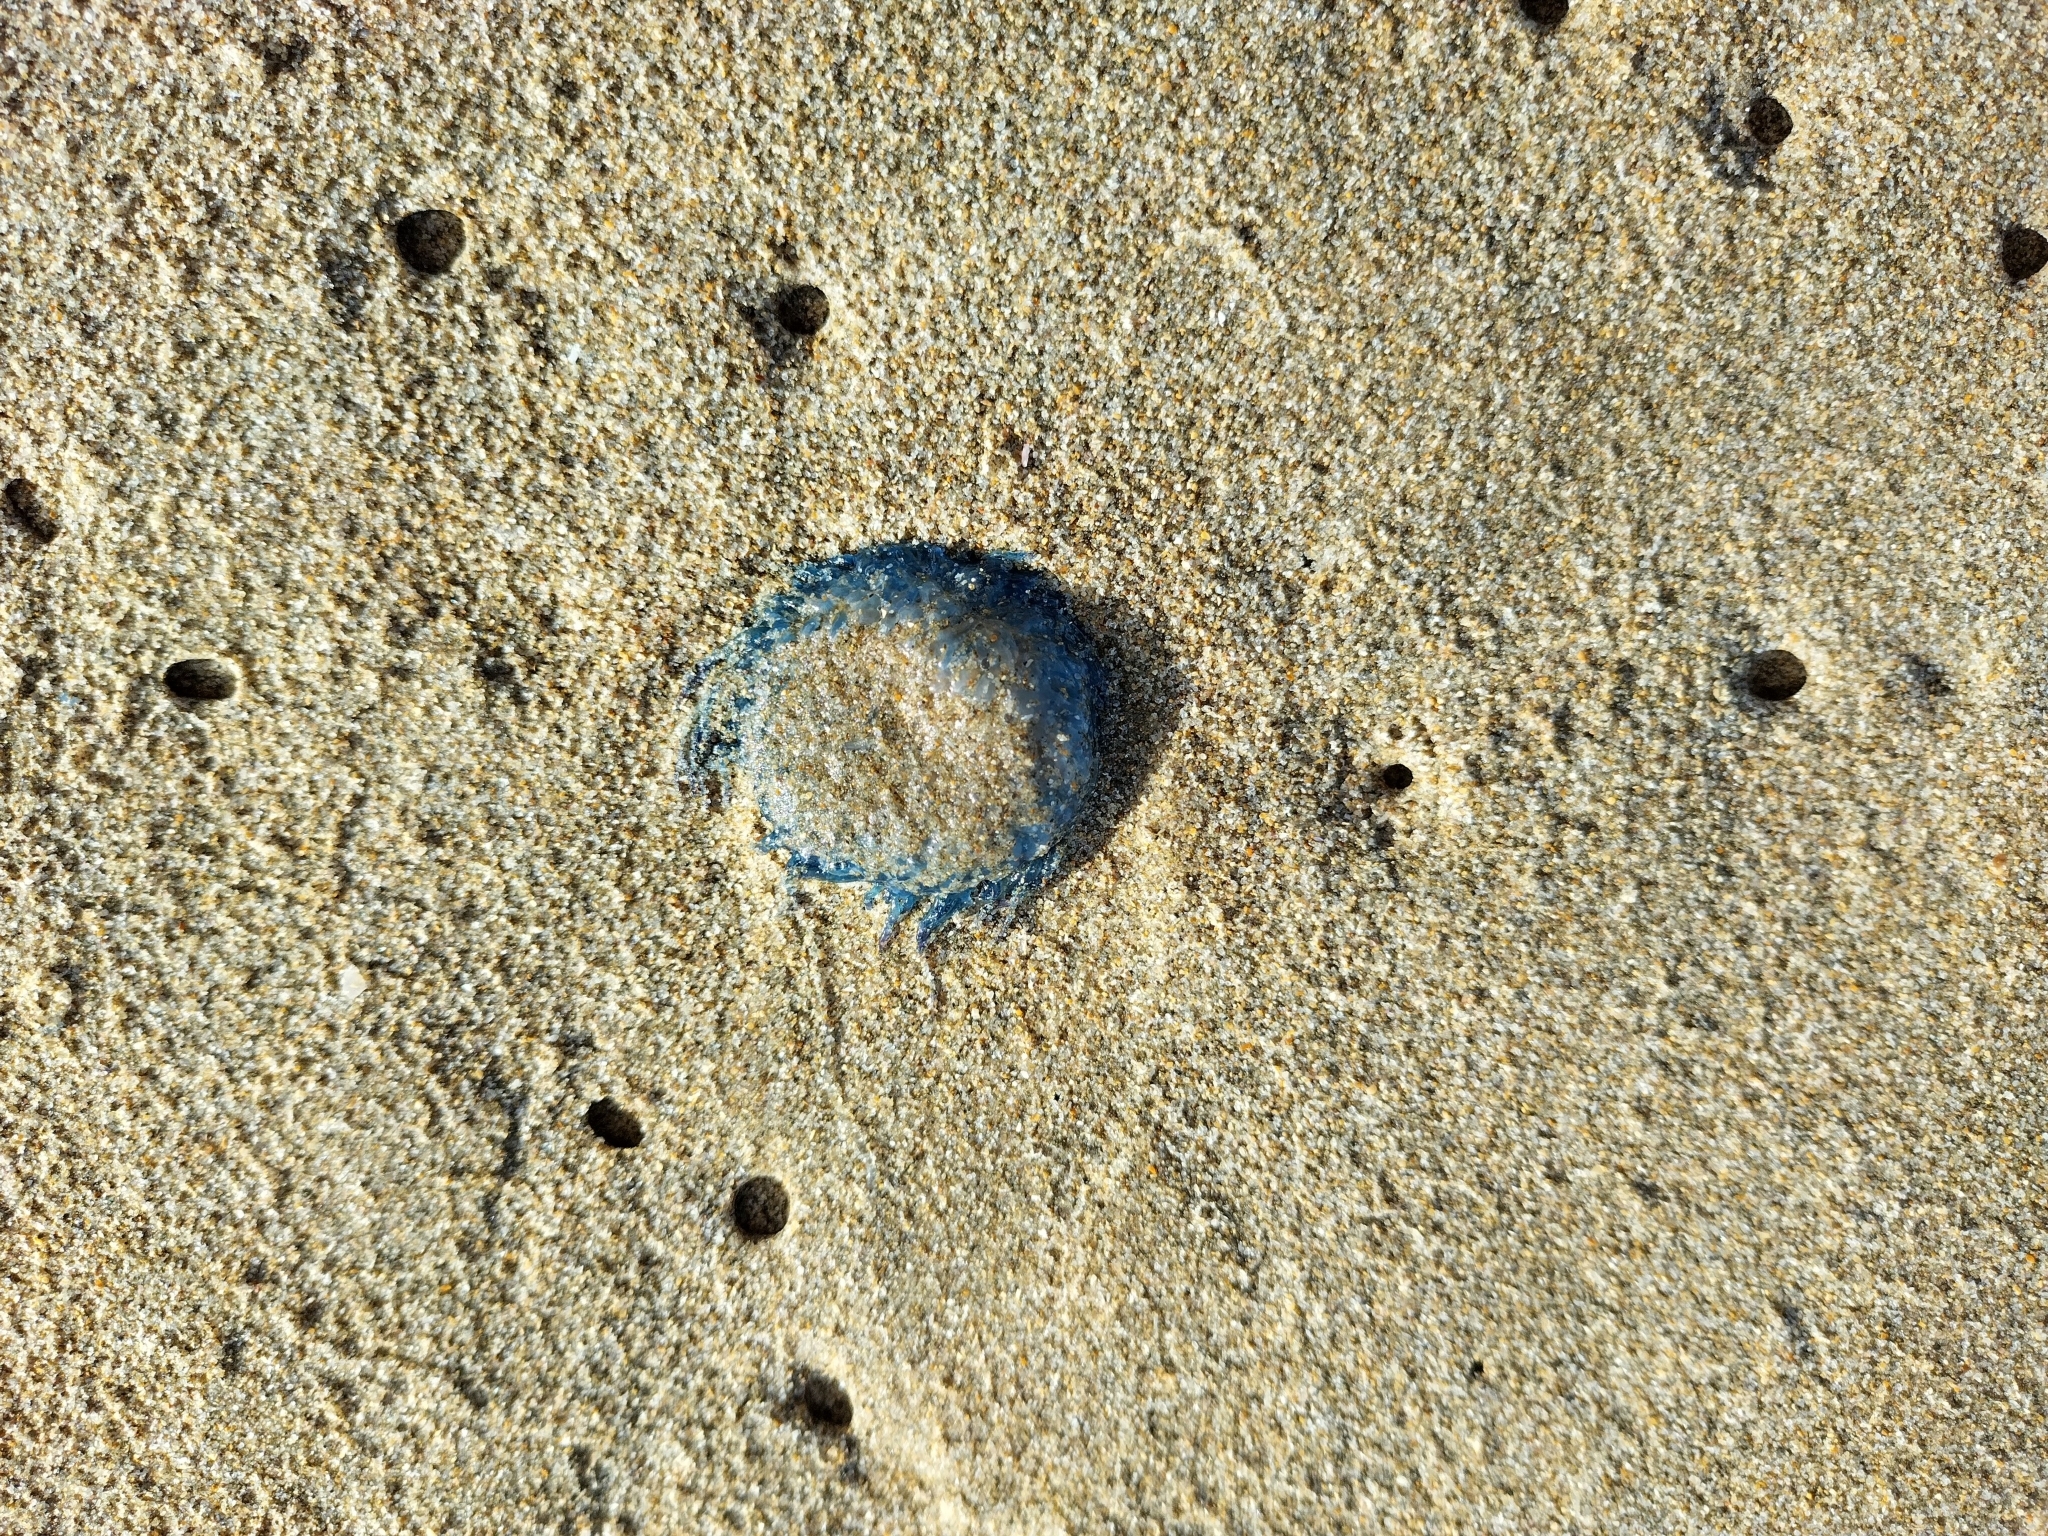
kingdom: Animalia
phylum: Cnidaria
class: Hydrozoa
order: Anthoathecata
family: Porpitidae
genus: Porpita
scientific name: Porpita porpita
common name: Blue button
